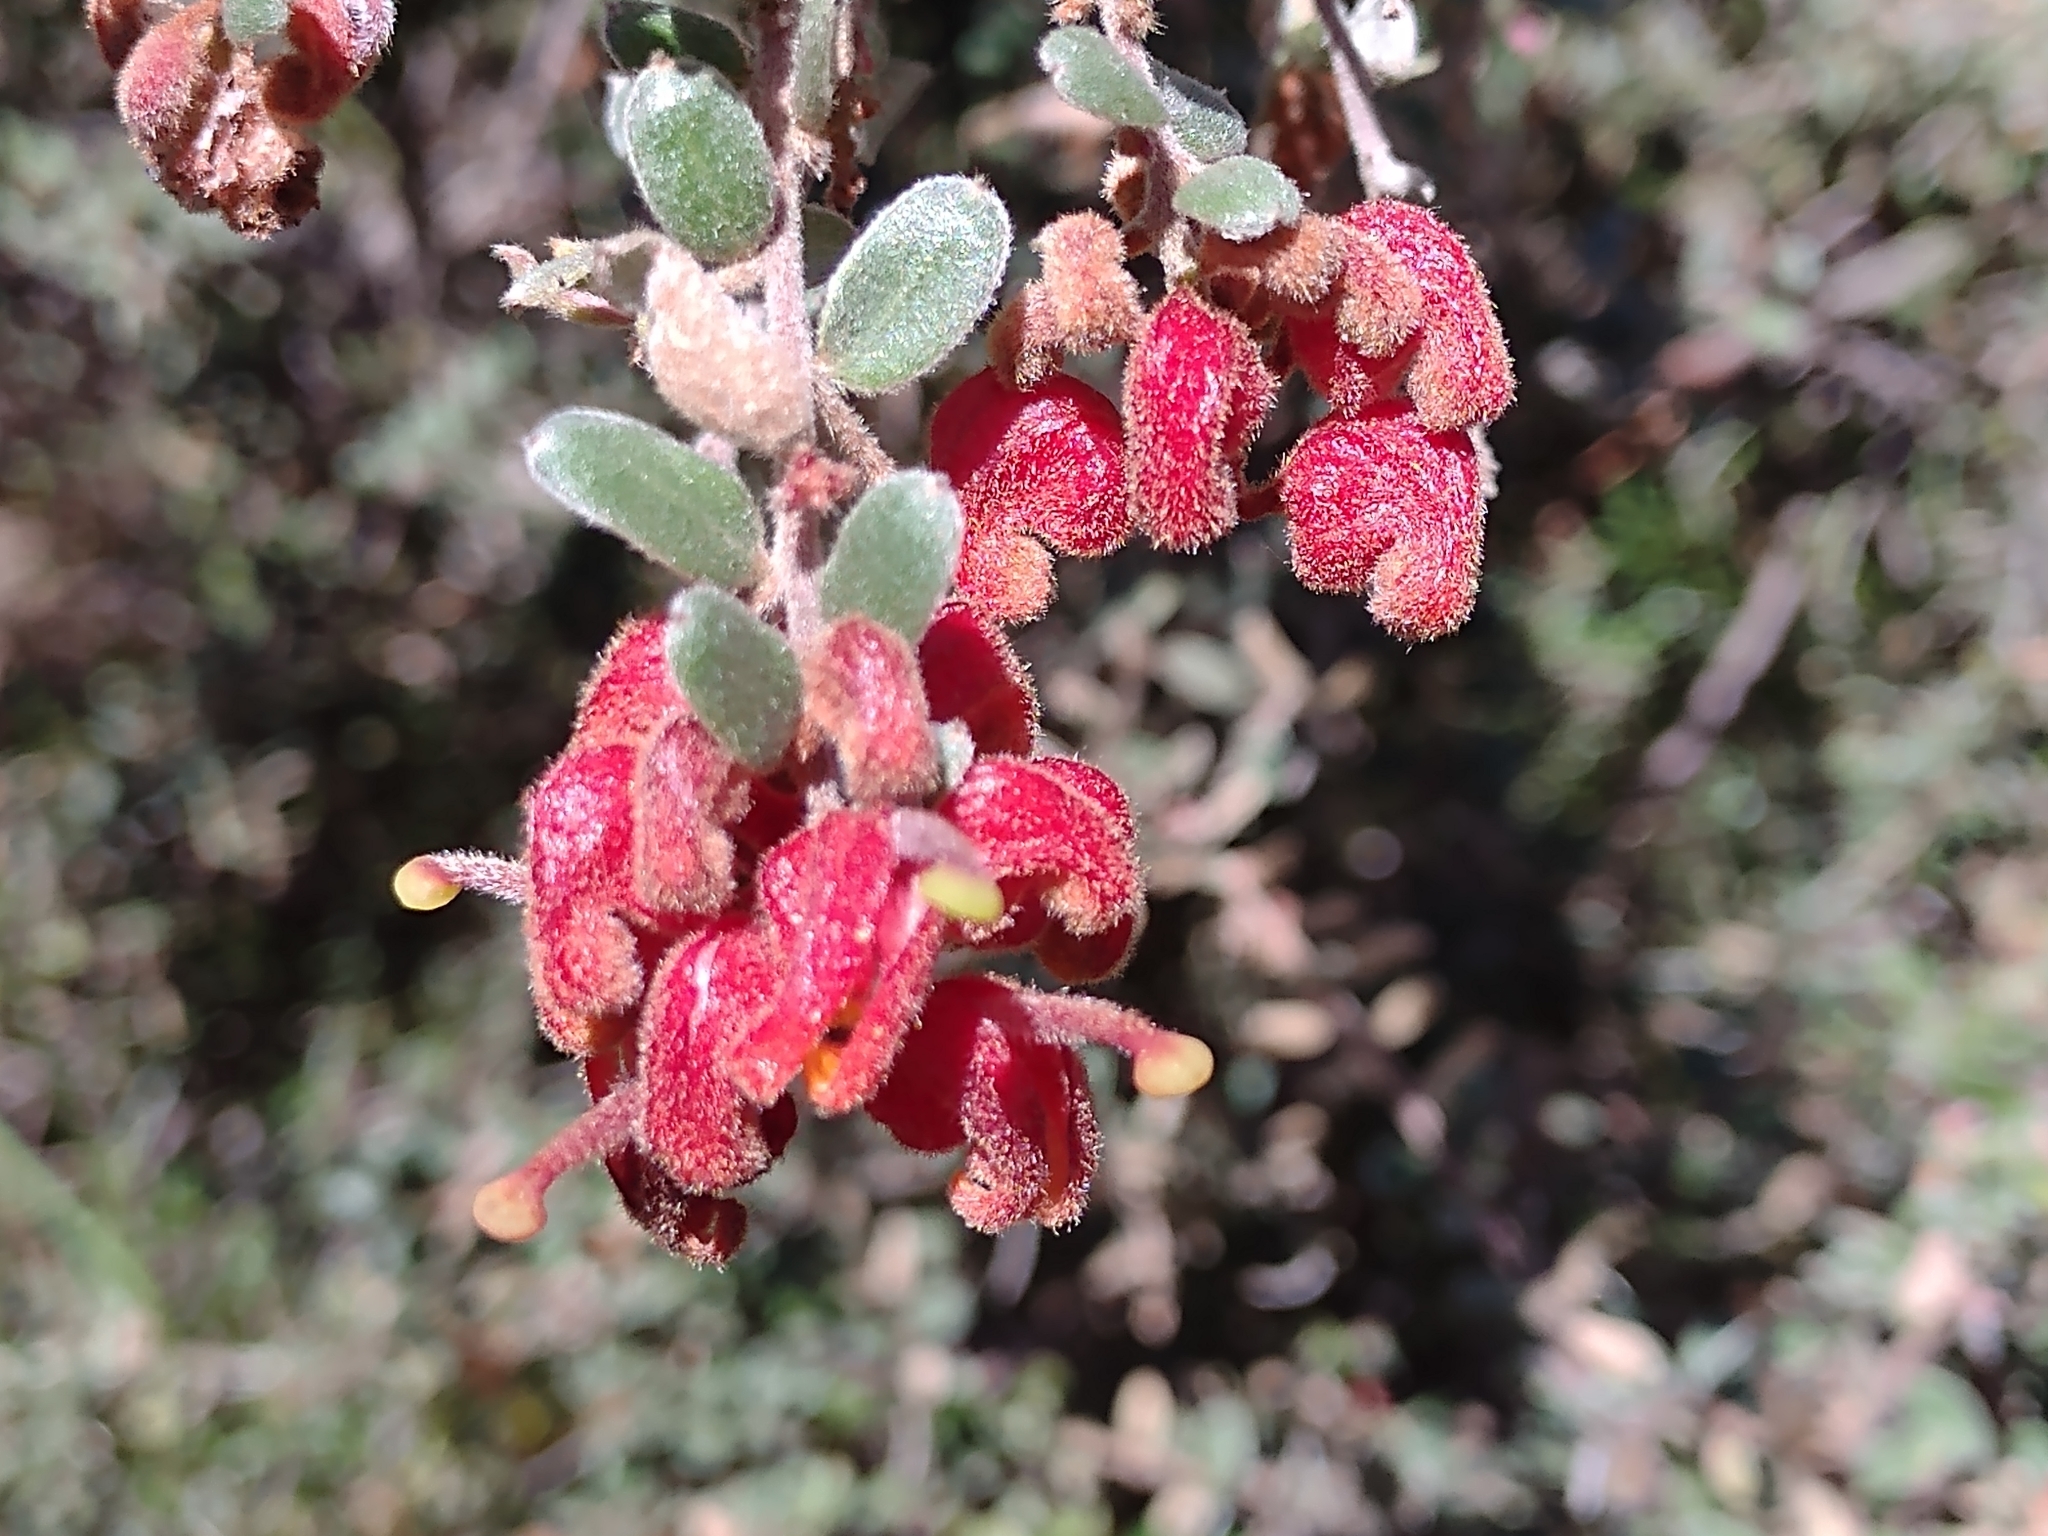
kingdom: Plantae
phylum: Tracheophyta
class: Magnoliopsida
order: Proteales
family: Proteaceae
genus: Grevillea
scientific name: Grevillea alpina
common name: Catclaws grevillea
